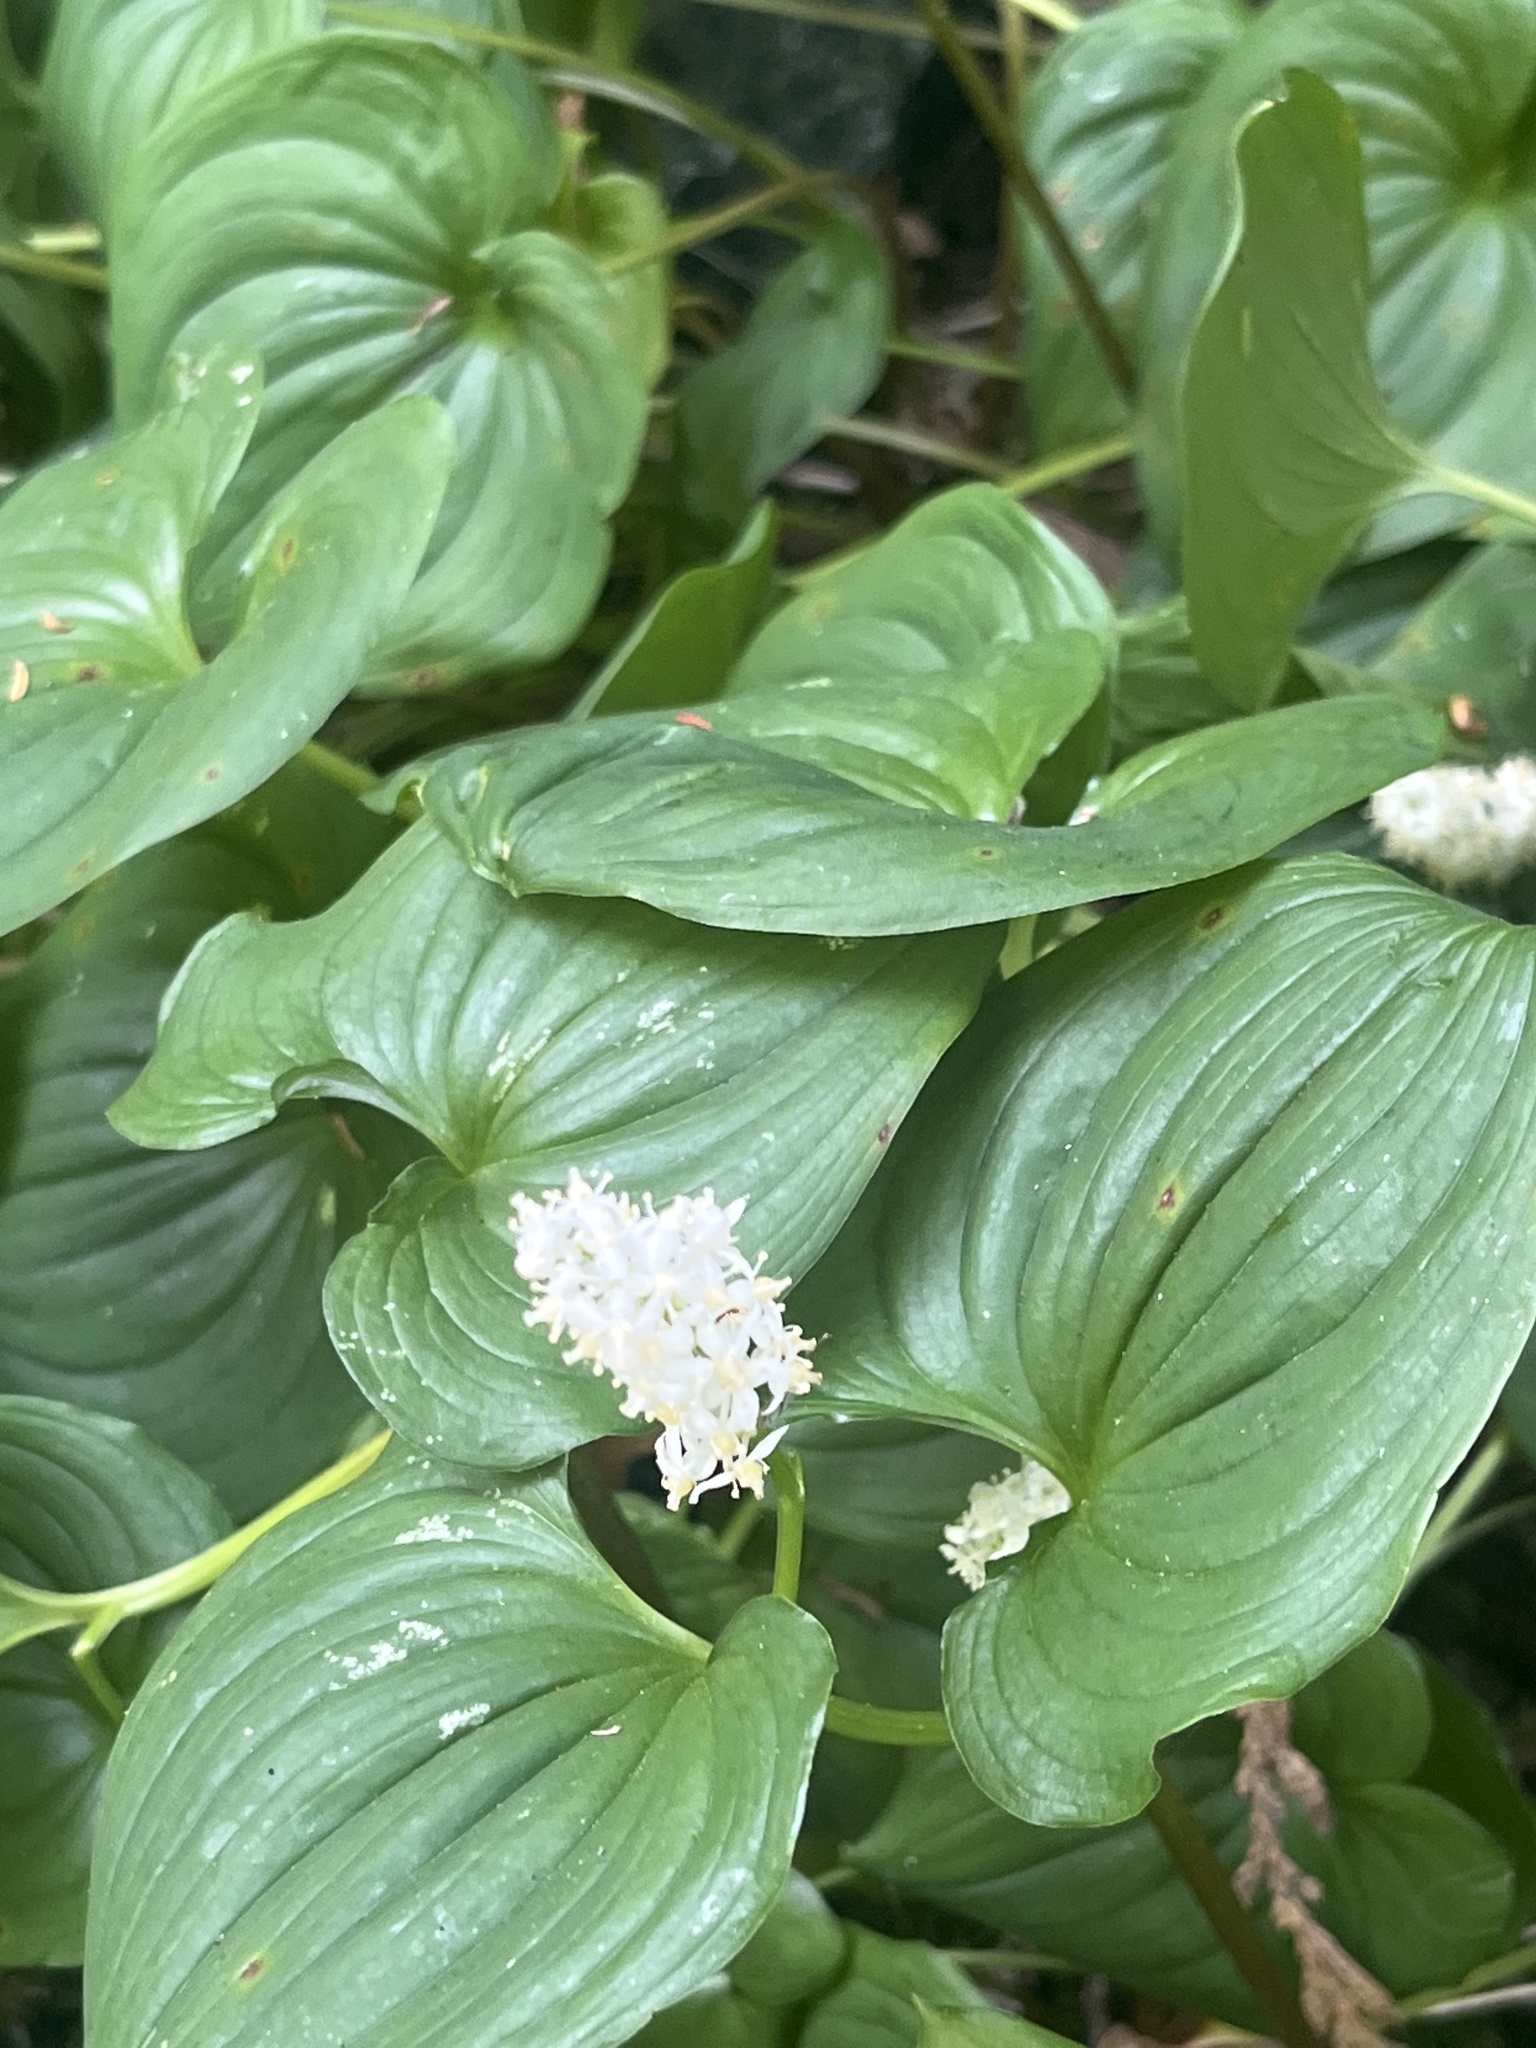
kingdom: Plantae
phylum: Tracheophyta
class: Liliopsida
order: Asparagales
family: Asparagaceae
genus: Maianthemum
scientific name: Maianthemum dilatatum
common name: False lily-of-the-valley
